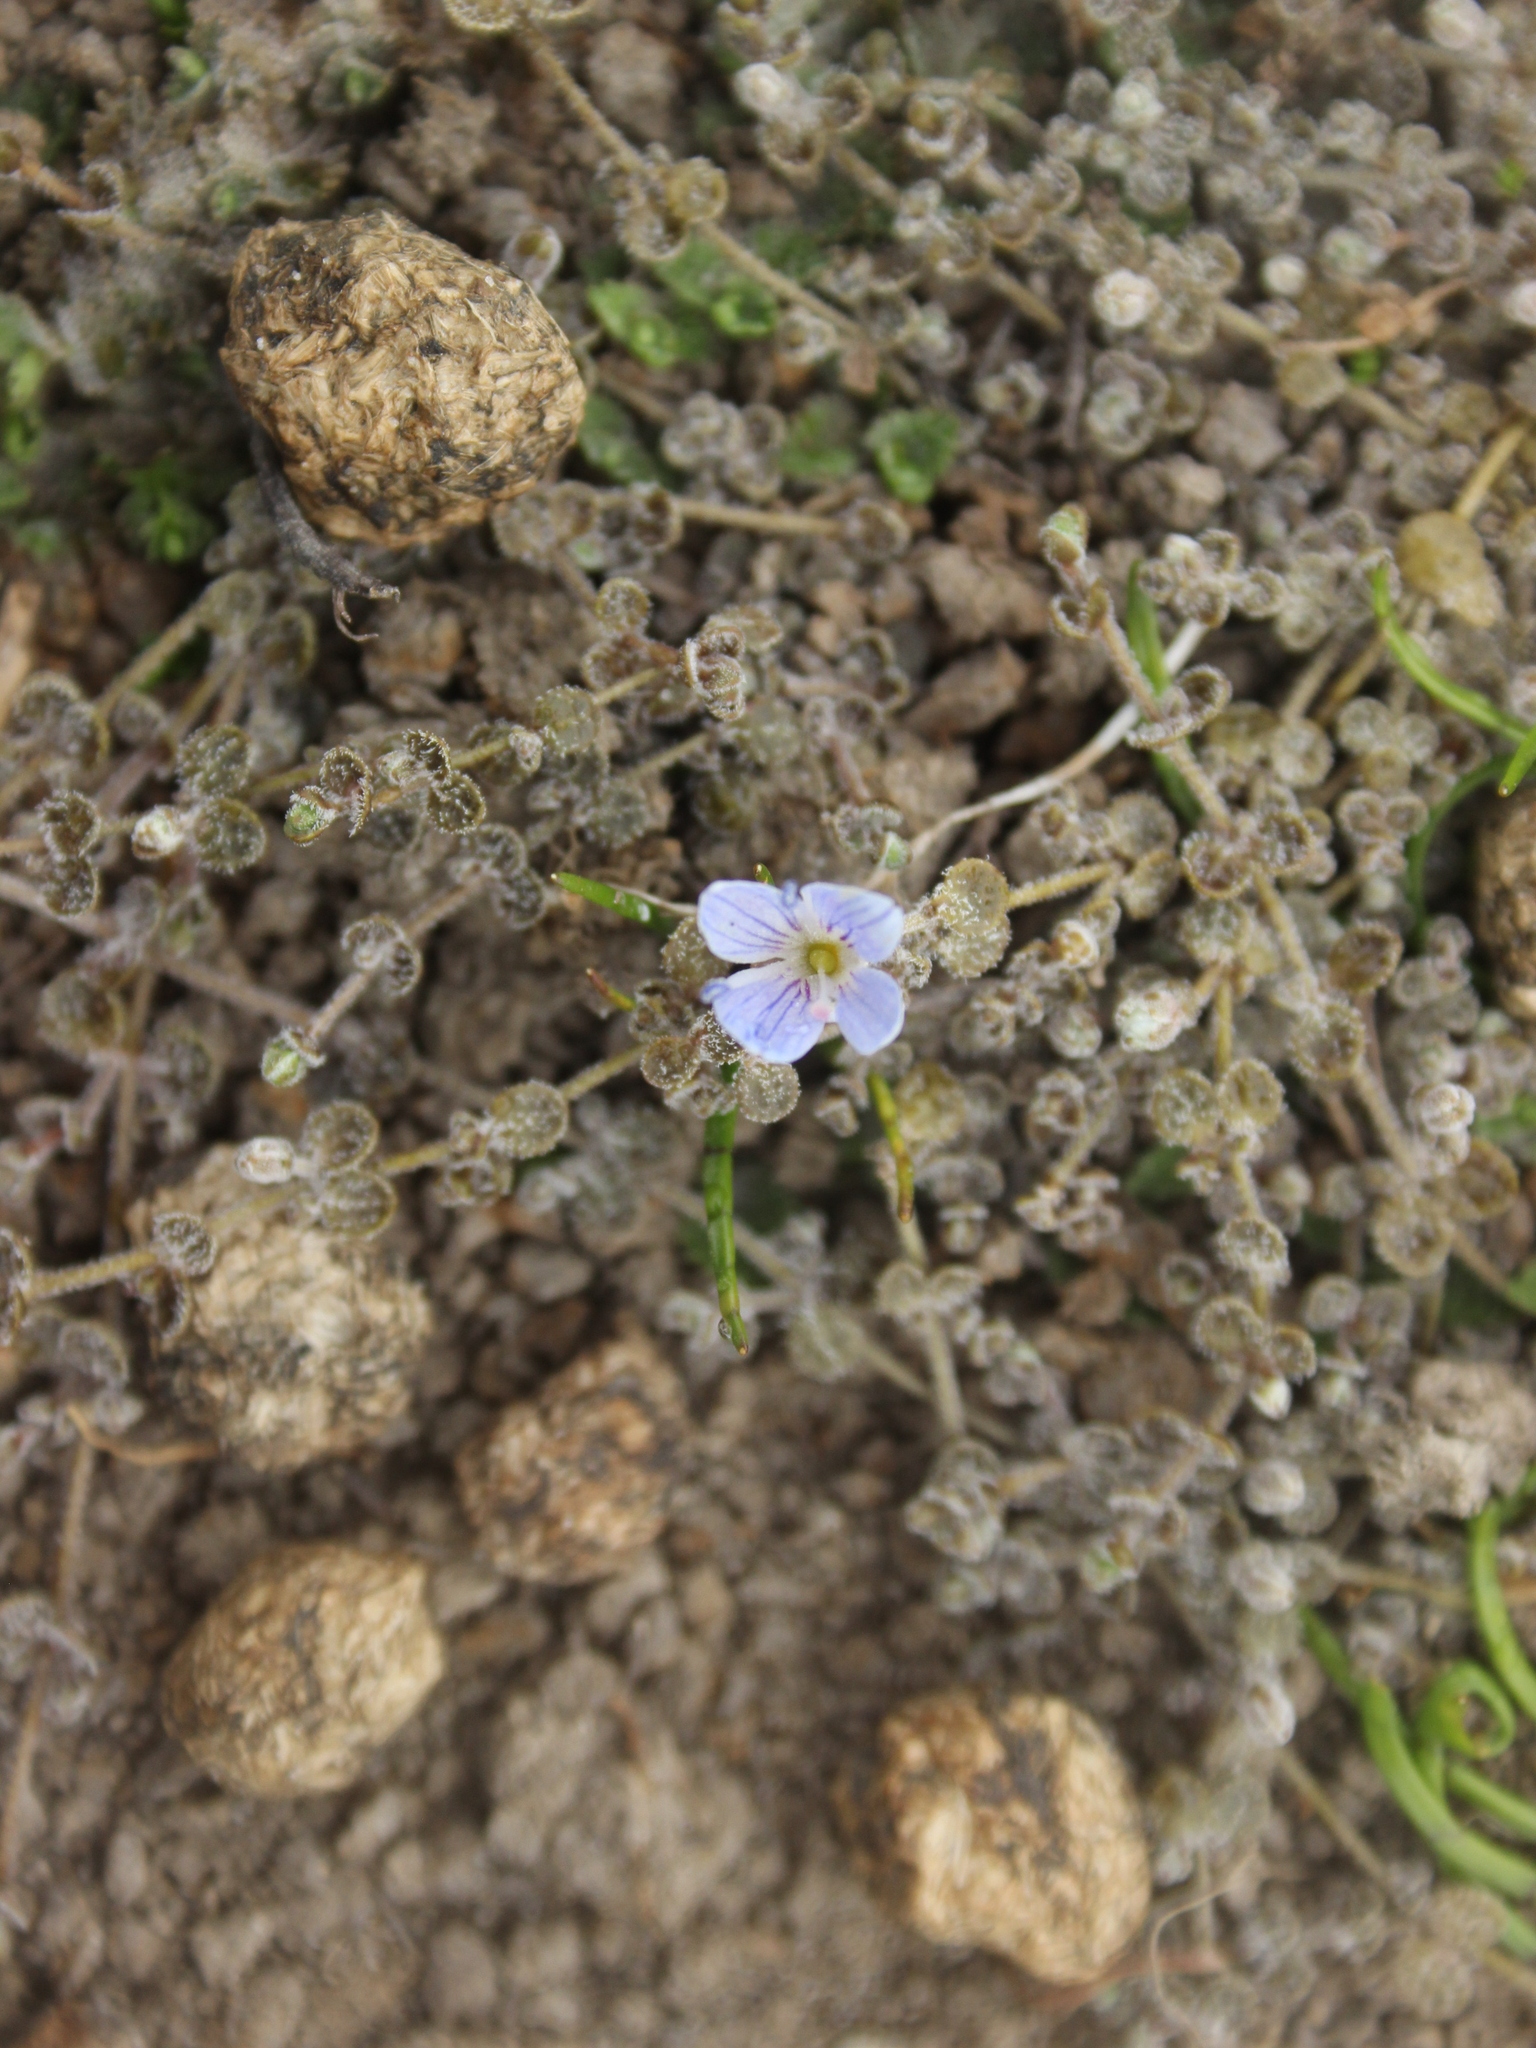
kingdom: Plantae
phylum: Tracheophyta
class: Magnoliopsida
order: Lamiales
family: Plantaginaceae
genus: Veronica
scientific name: Veronica lilliputiana
